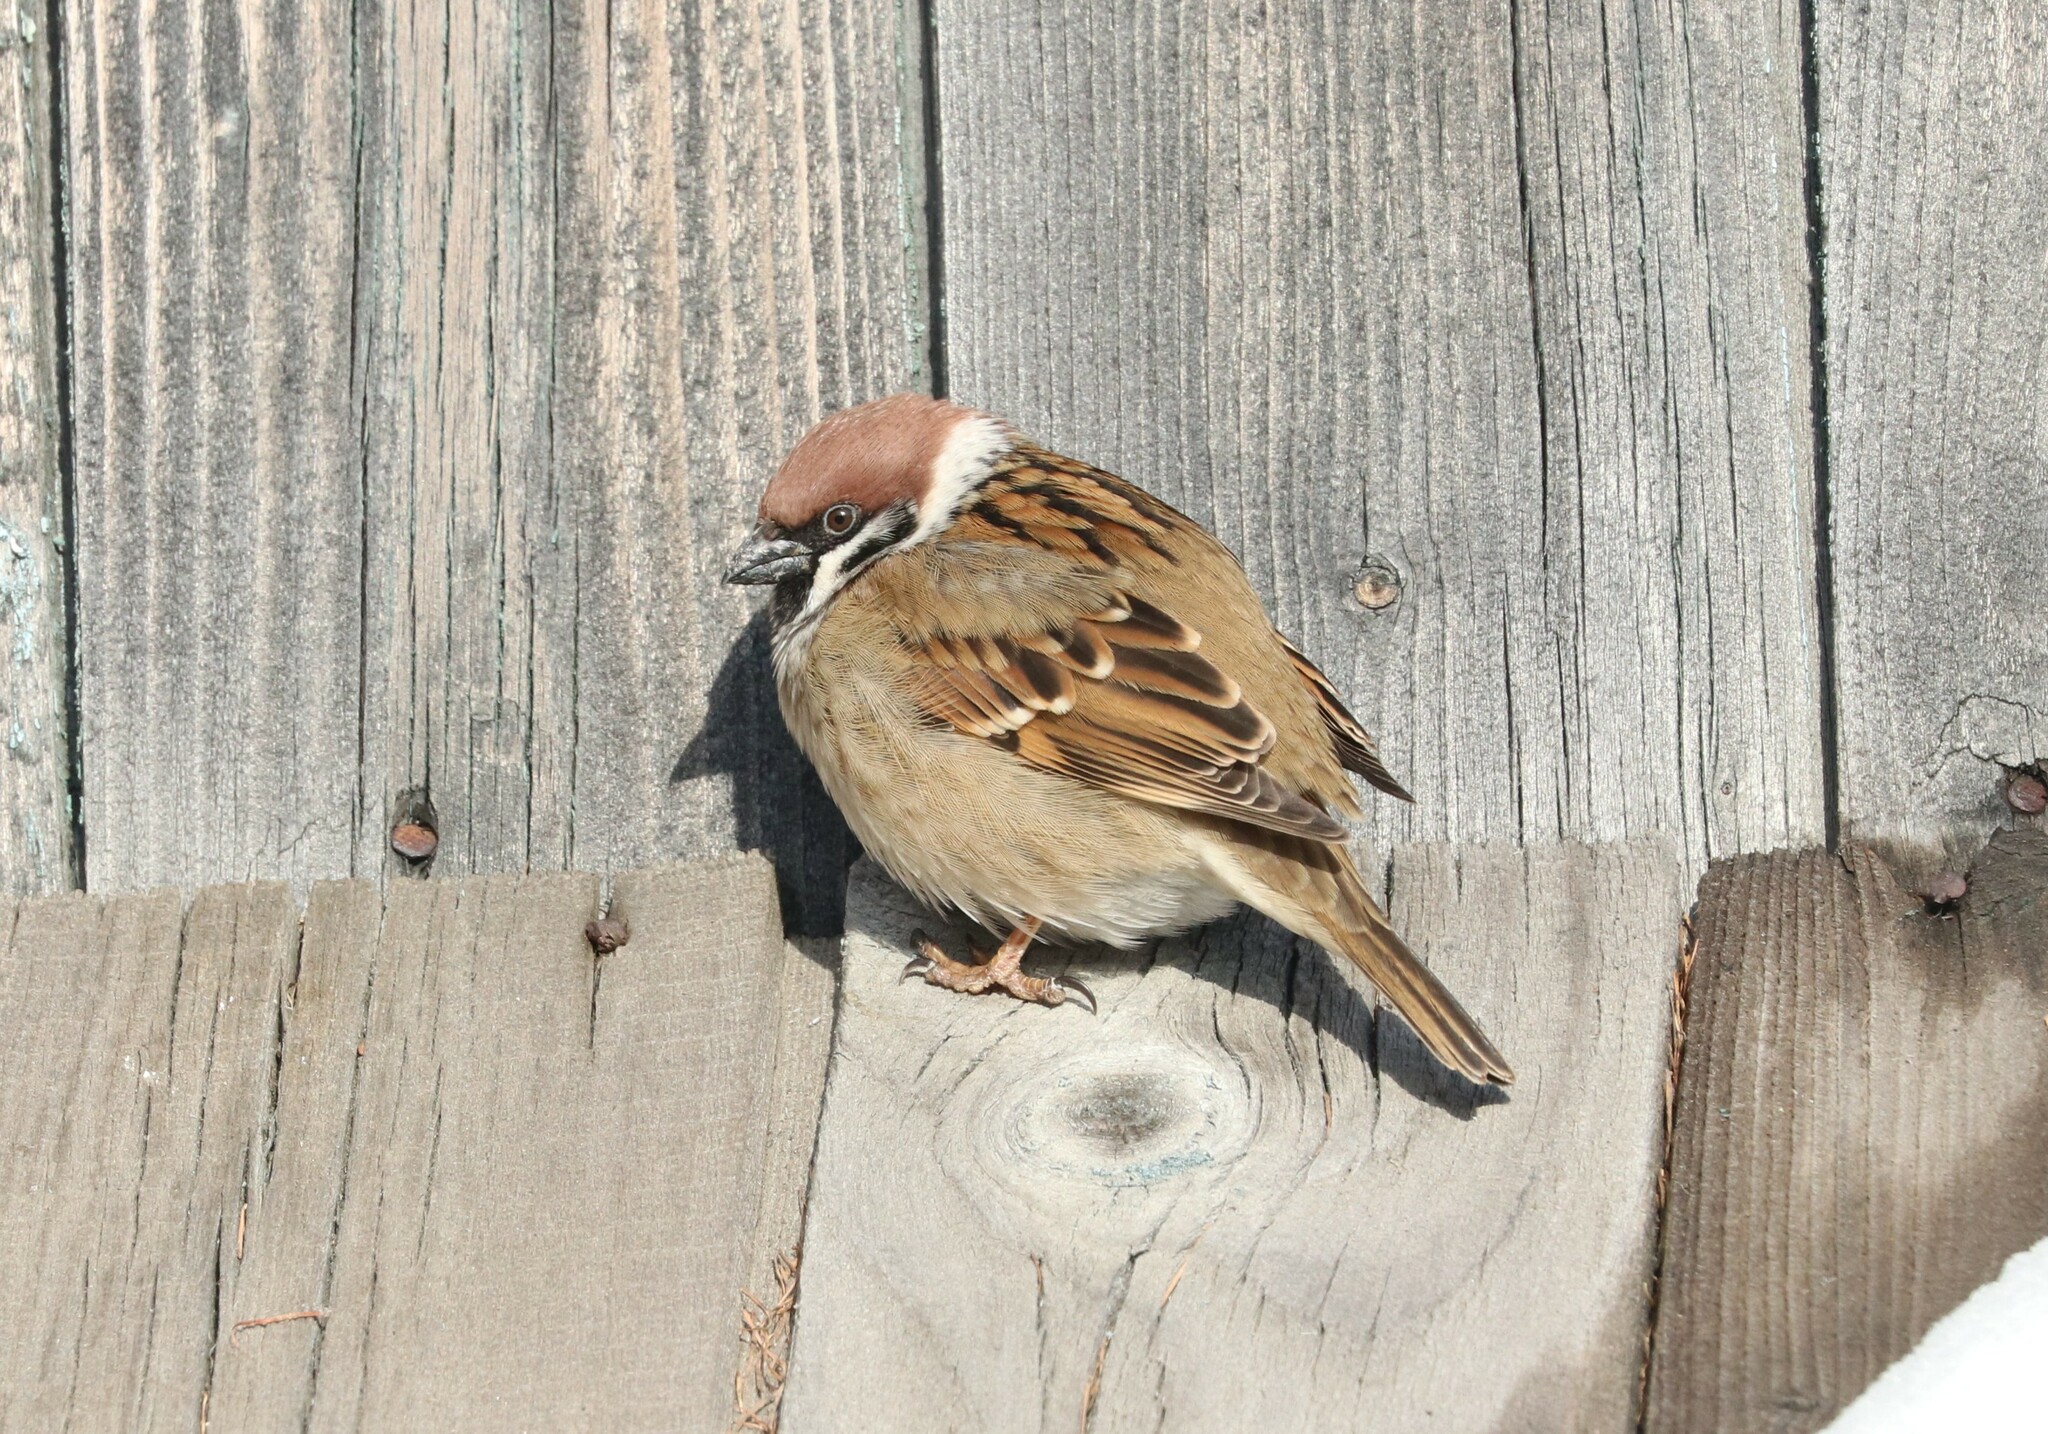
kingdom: Animalia
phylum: Chordata
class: Aves
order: Passeriformes
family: Passeridae
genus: Passer
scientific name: Passer montanus
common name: Eurasian tree sparrow
